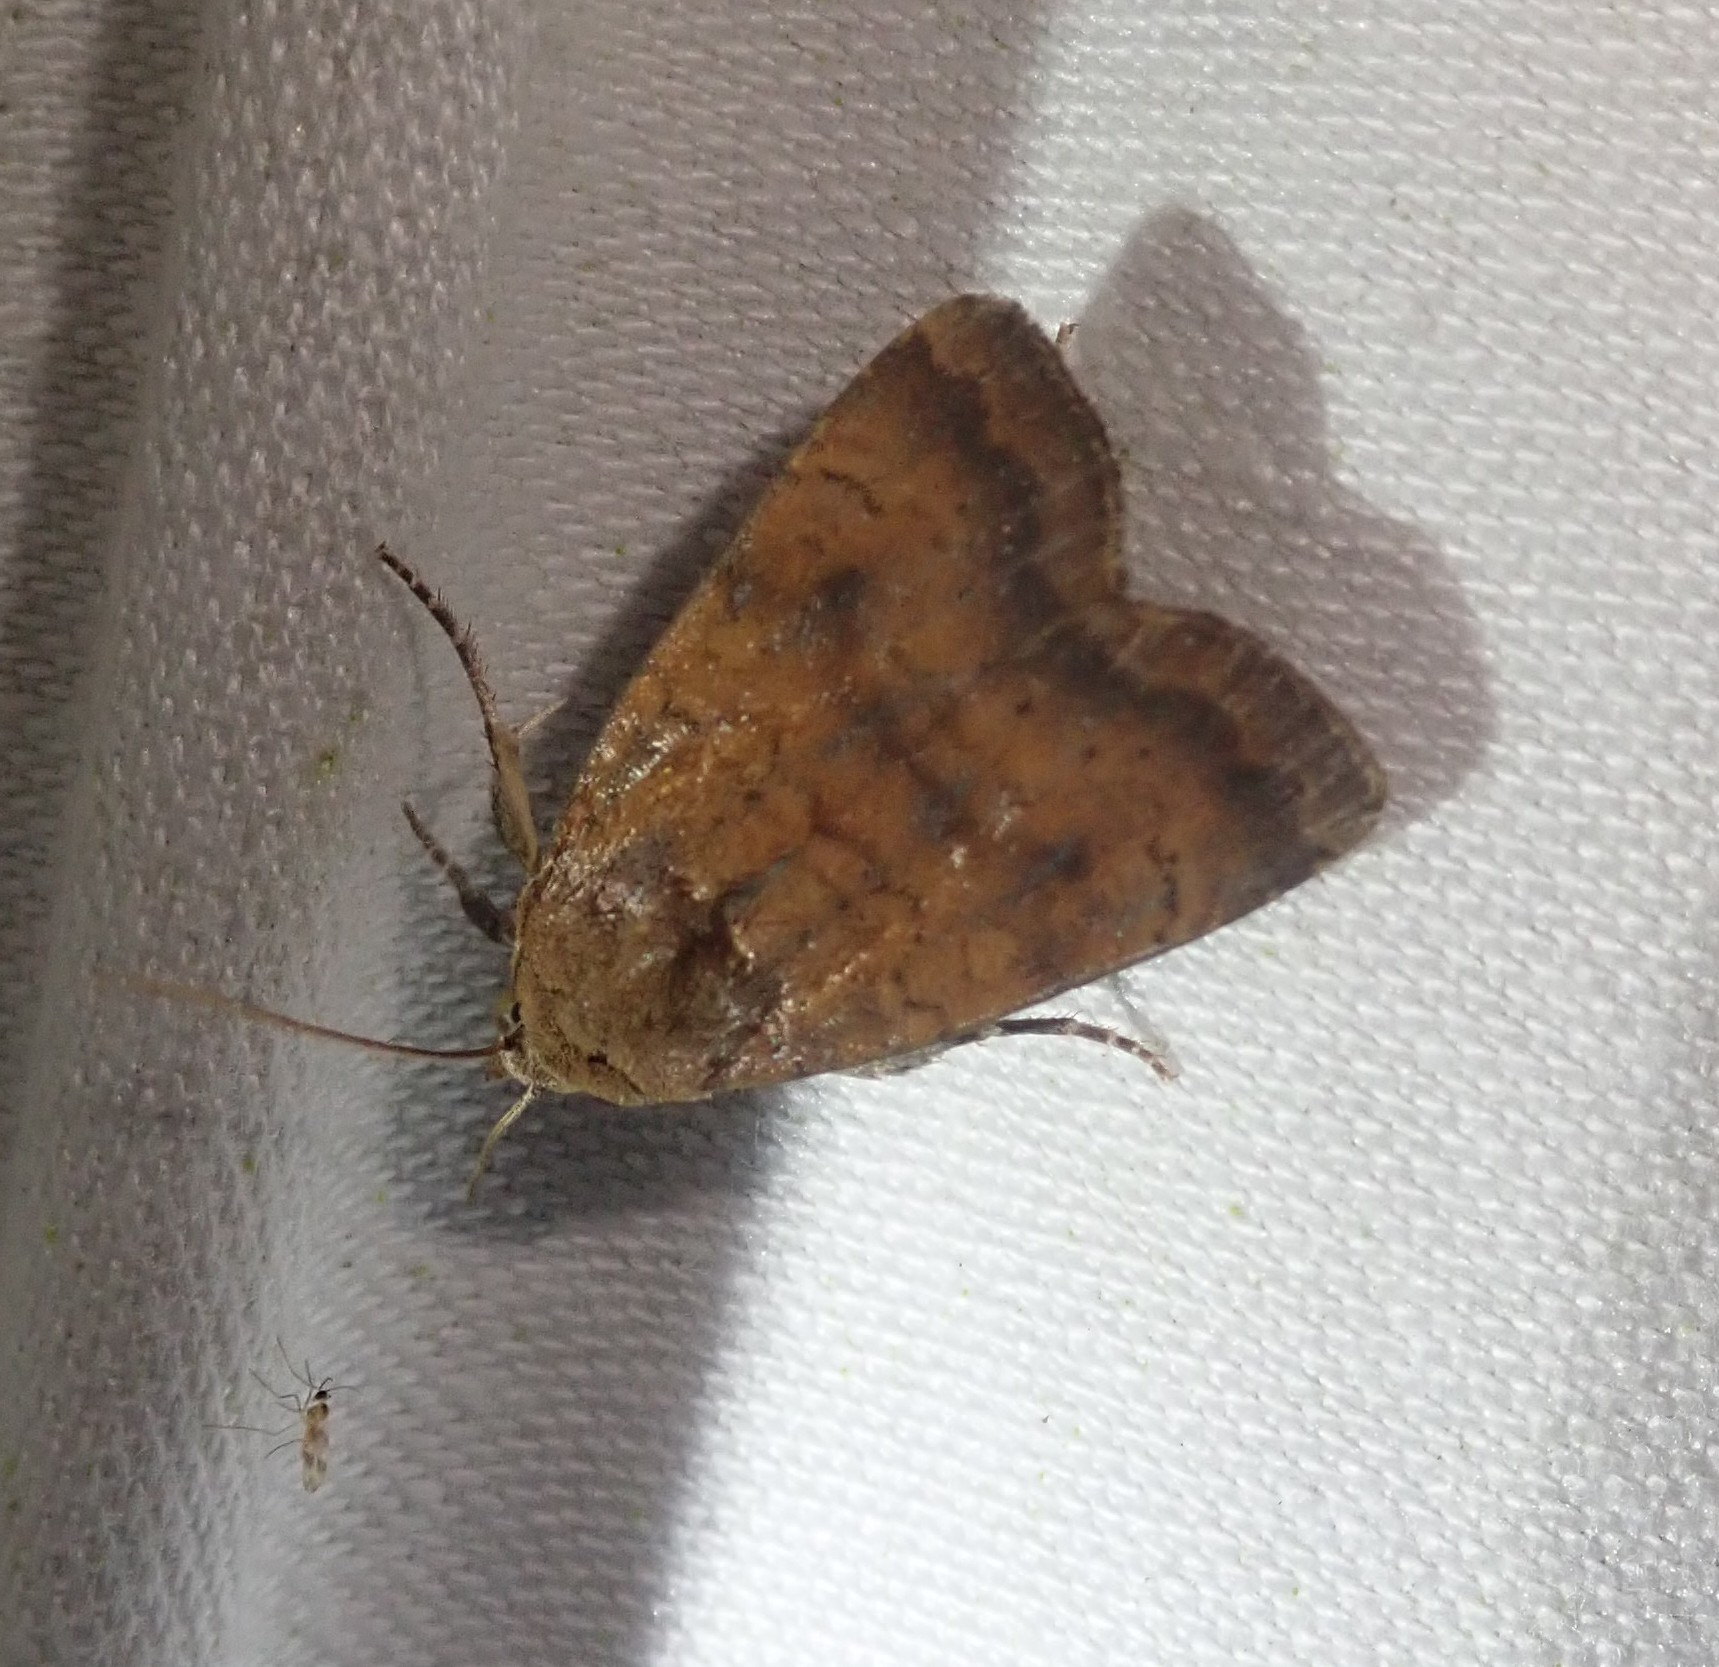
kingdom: Animalia
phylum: Arthropoda
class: Insecta
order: Lepidoptera
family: Noctuidae
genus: Noctua
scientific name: Noctua interjecta
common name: Least yellow underwing
